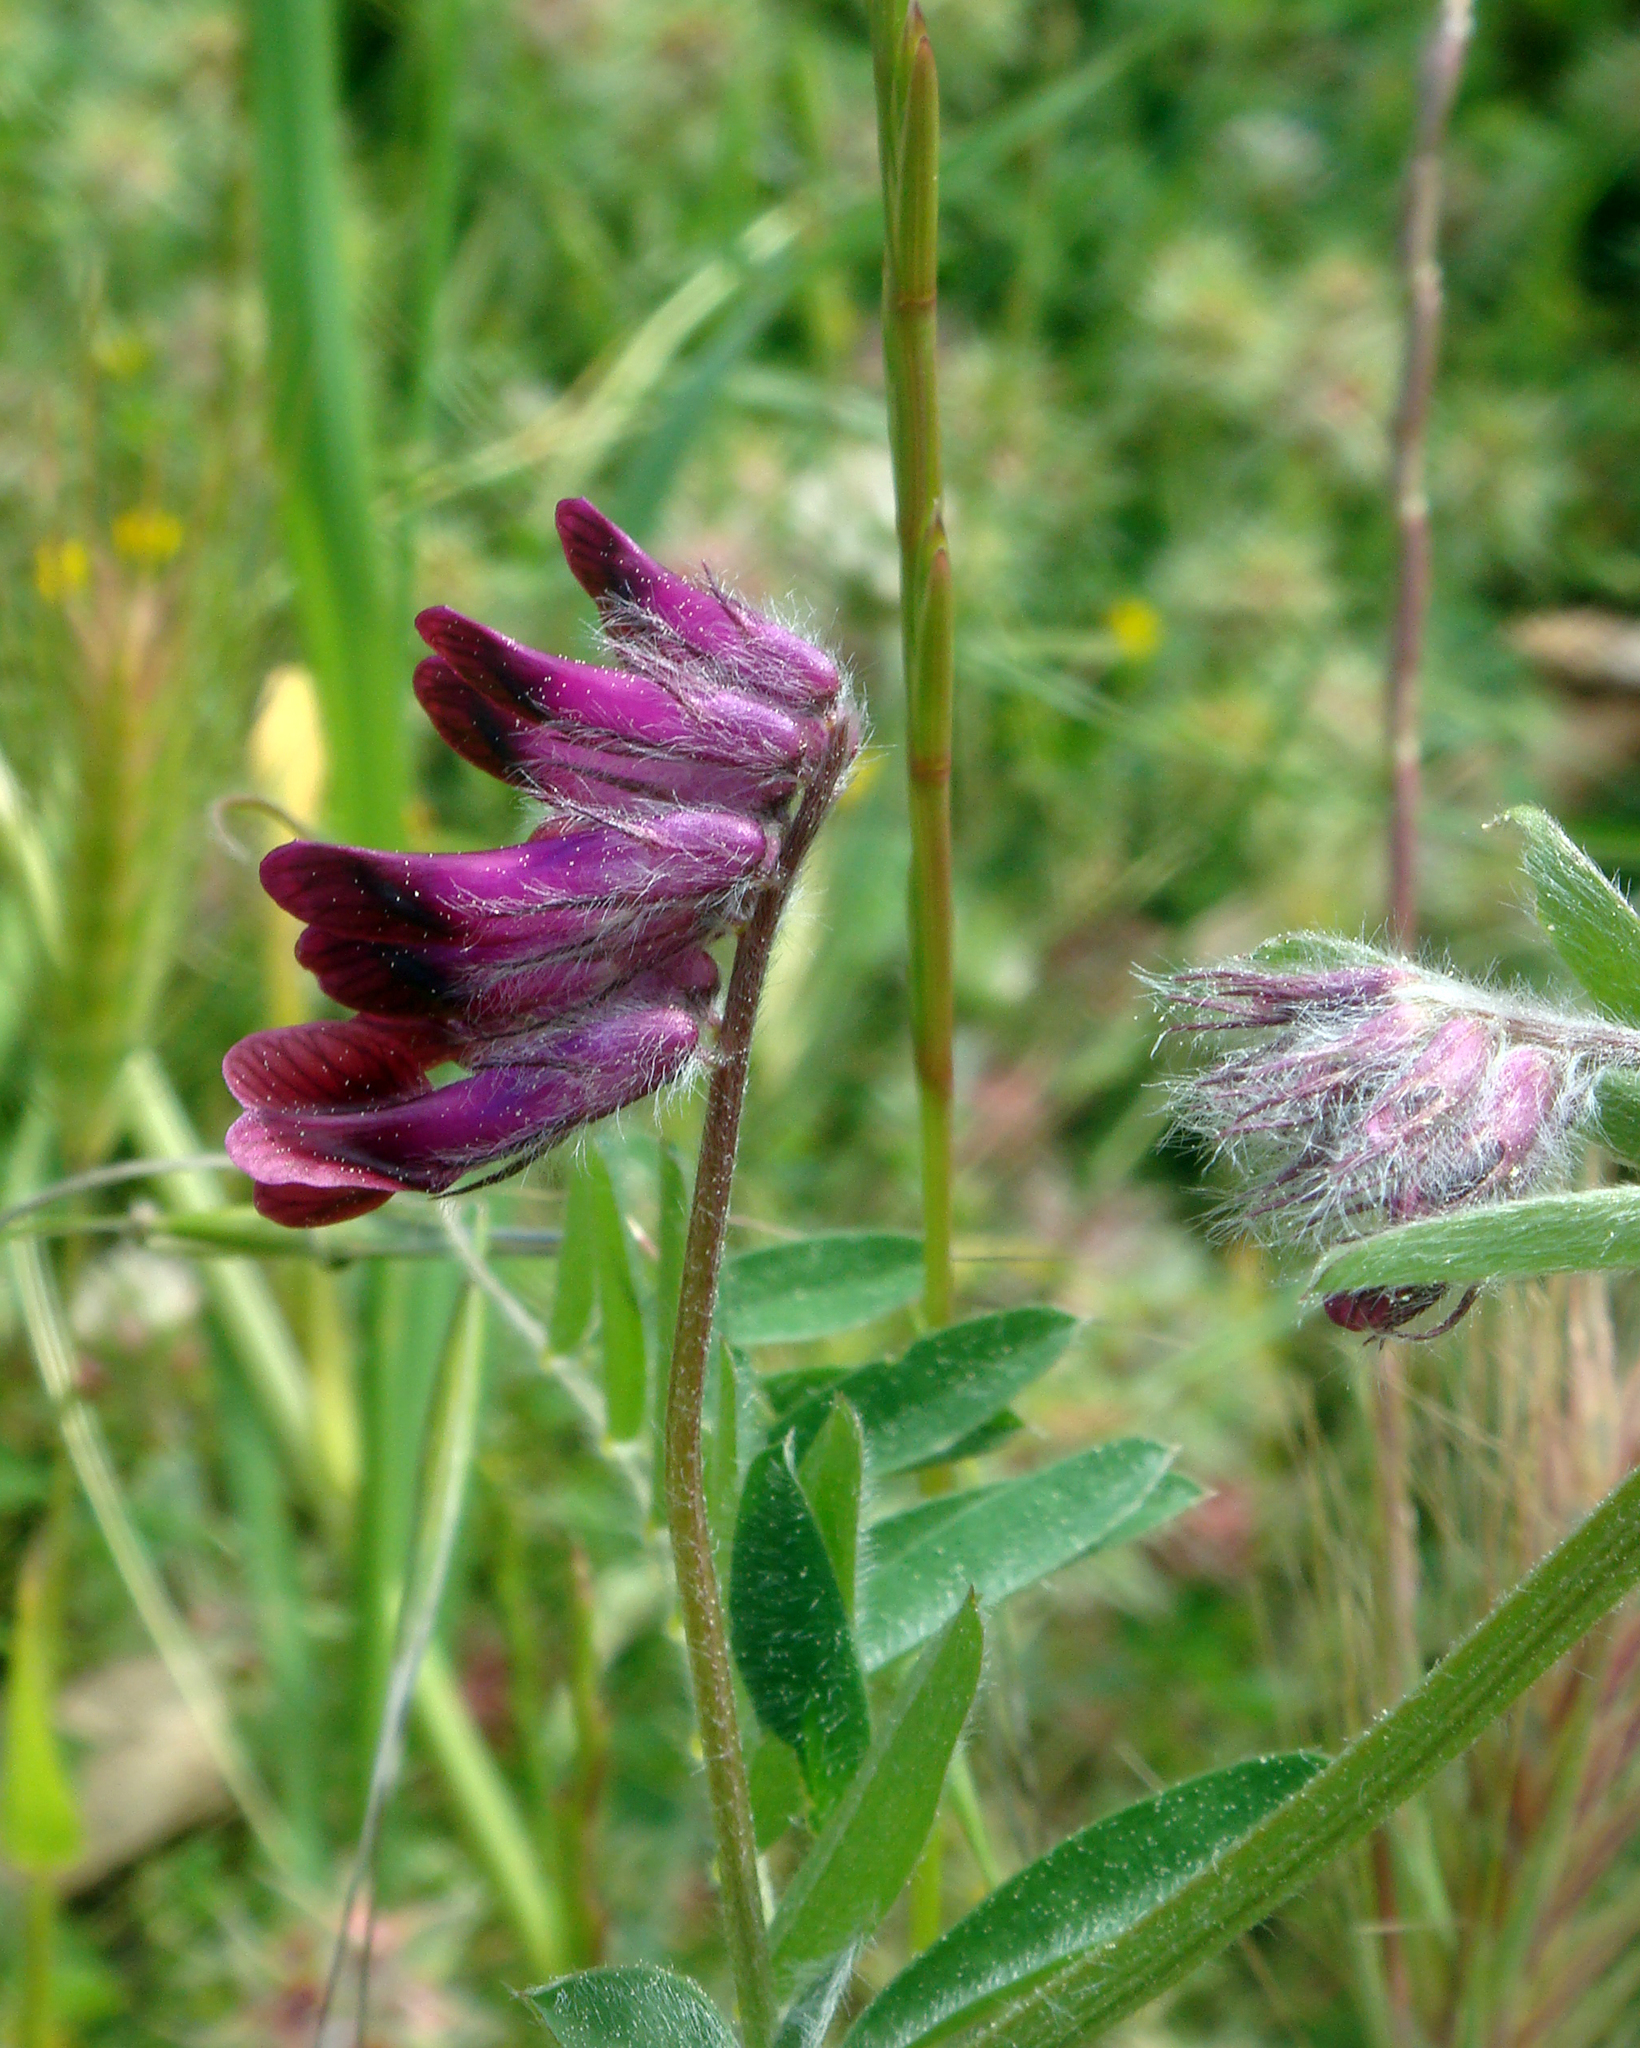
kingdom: Plantae
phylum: Tracheophyta
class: Magnoliopsida
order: Fabales
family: Fabaceae
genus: Vicia
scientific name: Vicia benghalensis
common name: Purple vetch
